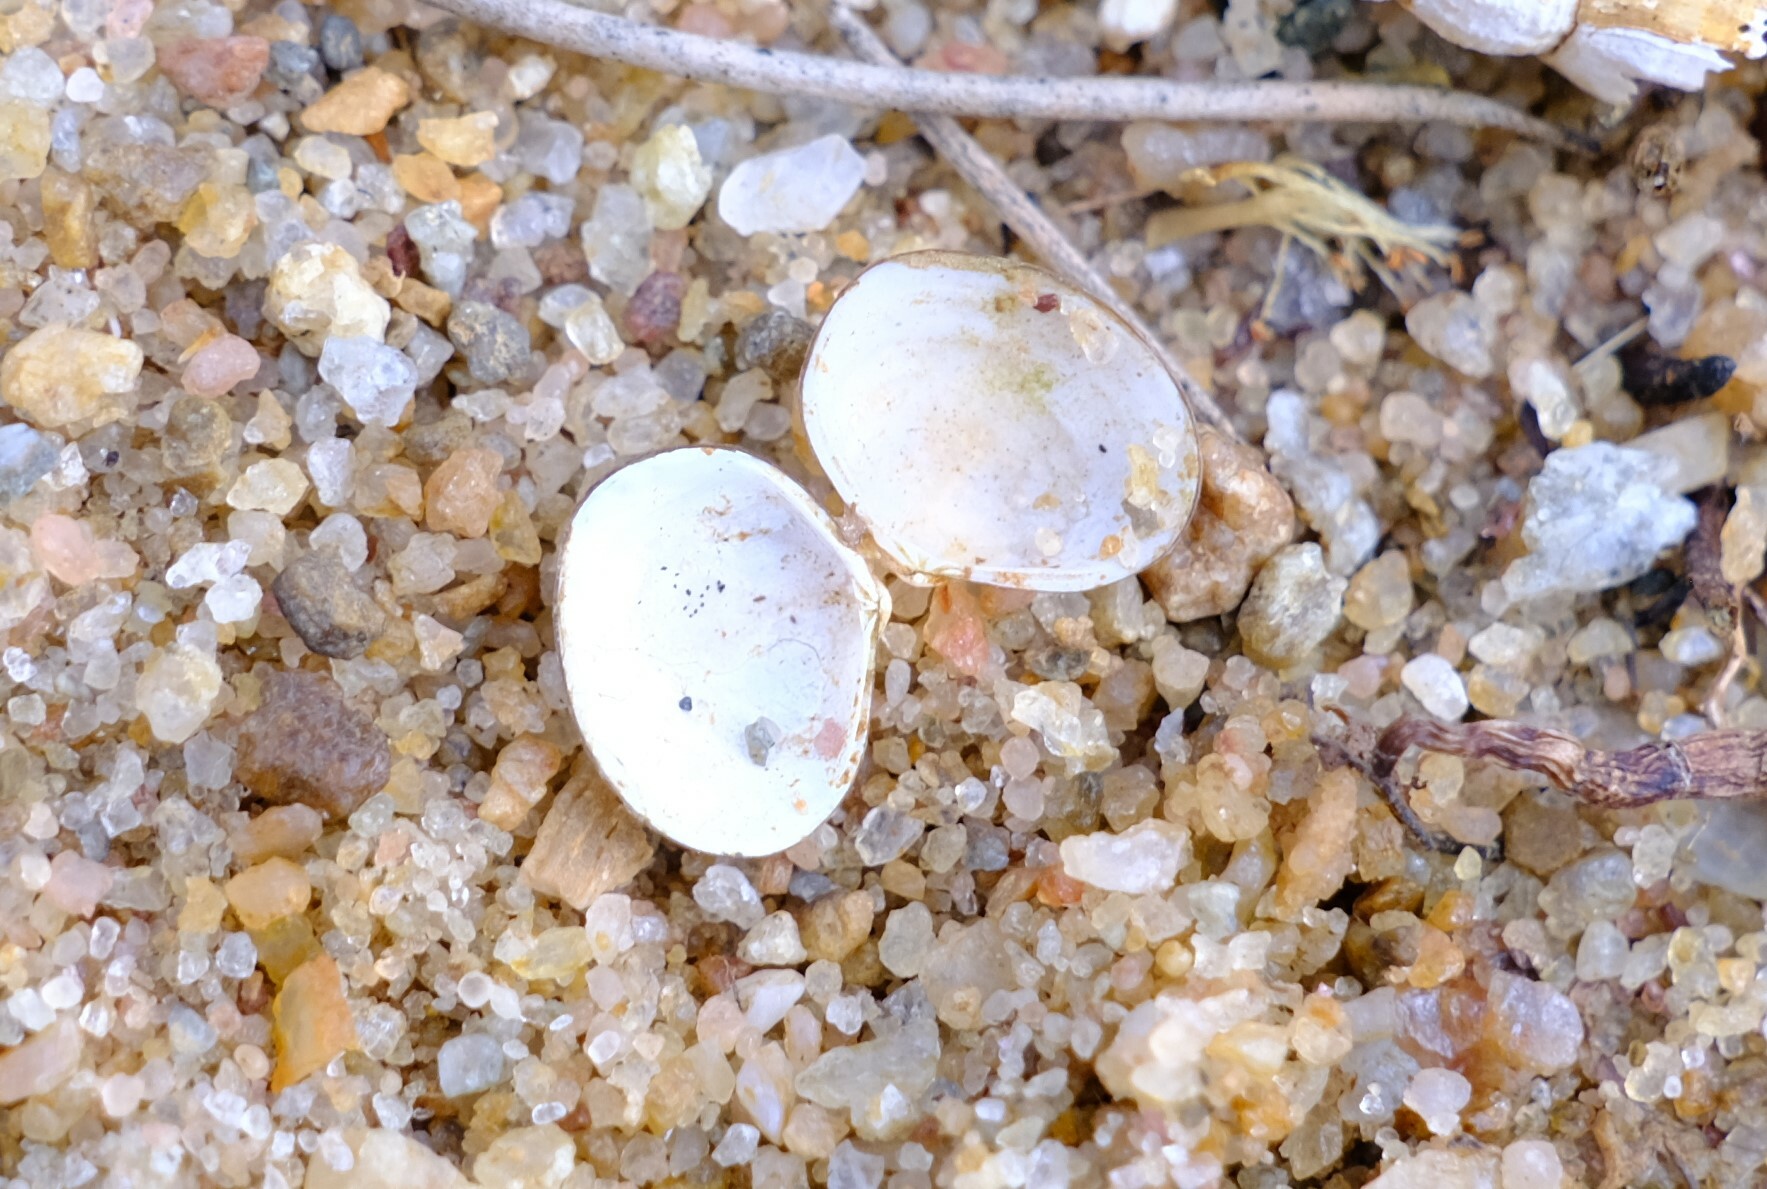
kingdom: Animalia
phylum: Mollusca
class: Bivalvia
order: Venerida
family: Cyrenidae
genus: Corbicula
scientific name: Corbicula australis
